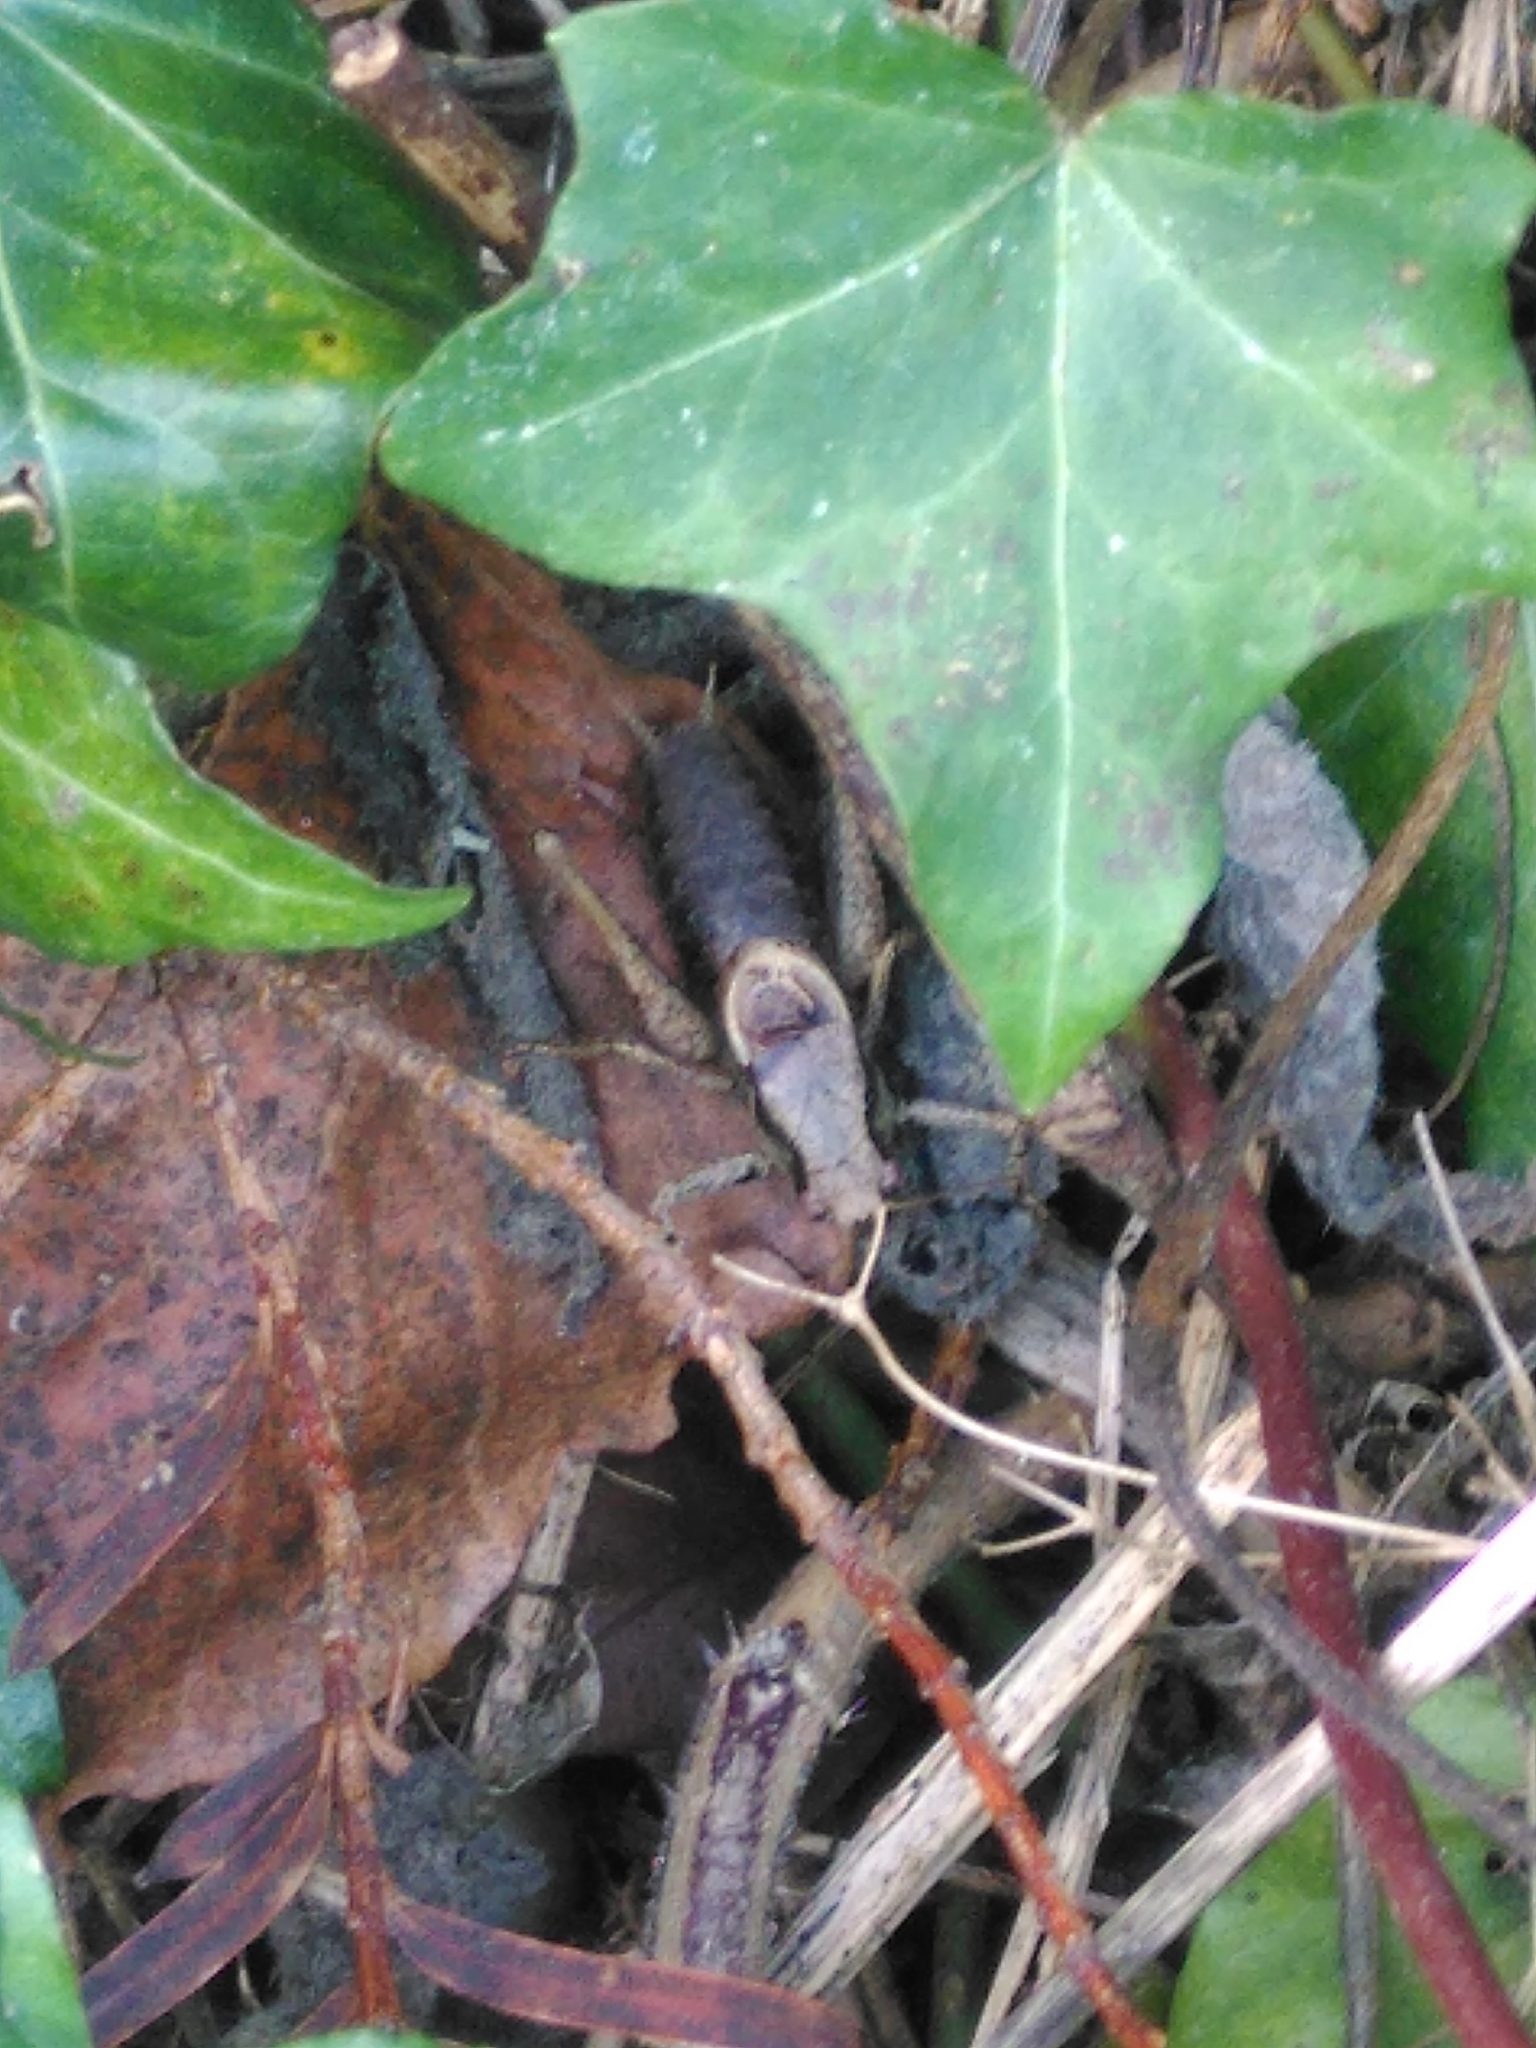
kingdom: Animalia
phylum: Arthropoda
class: Insecta
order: Orthoptera
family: Tettigoniidae
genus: Pholidoptera
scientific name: Pholidoptera griseoaptera
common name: Dark bush-cricket
